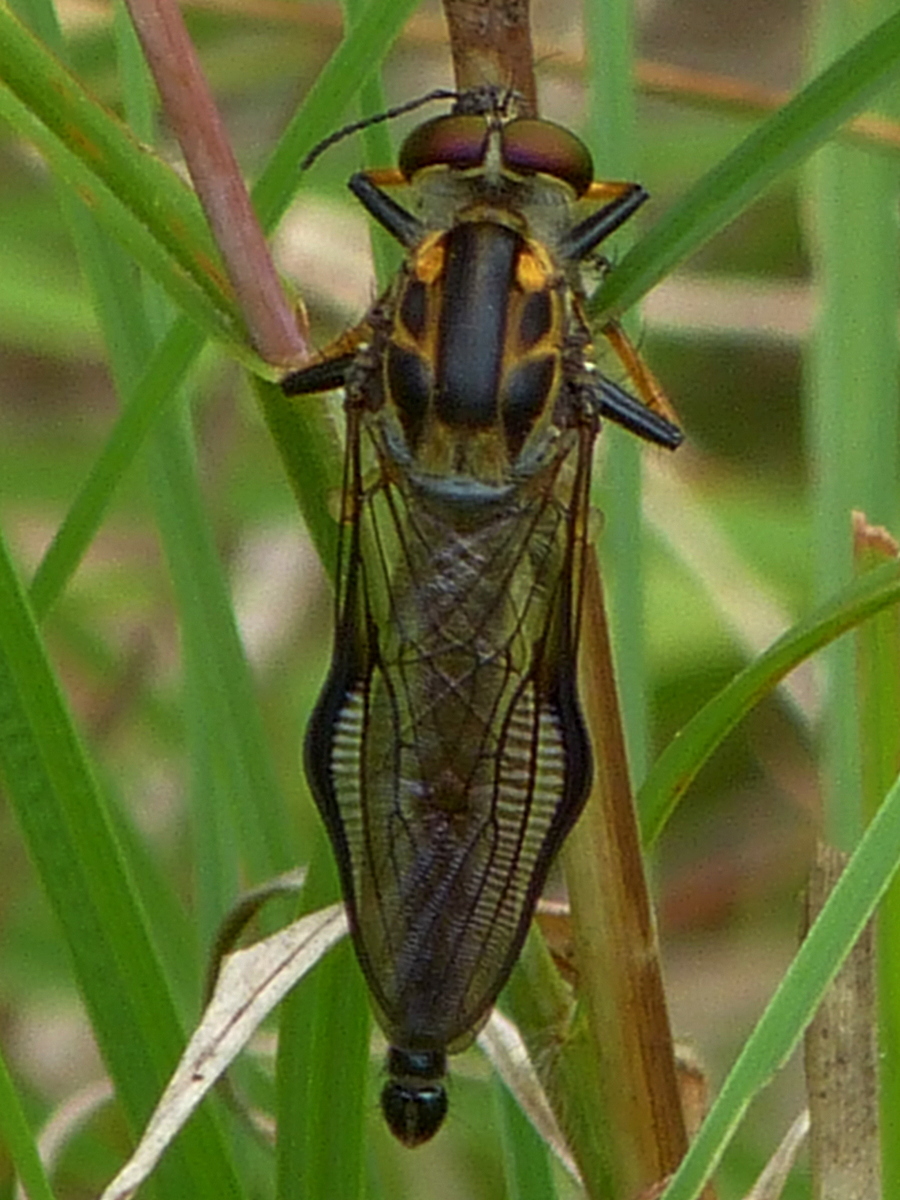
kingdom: Animalia
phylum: Arthropoda
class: Insecta
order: Diptera
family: Asilidae
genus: Ommatius
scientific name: Ommatius coeraebus
